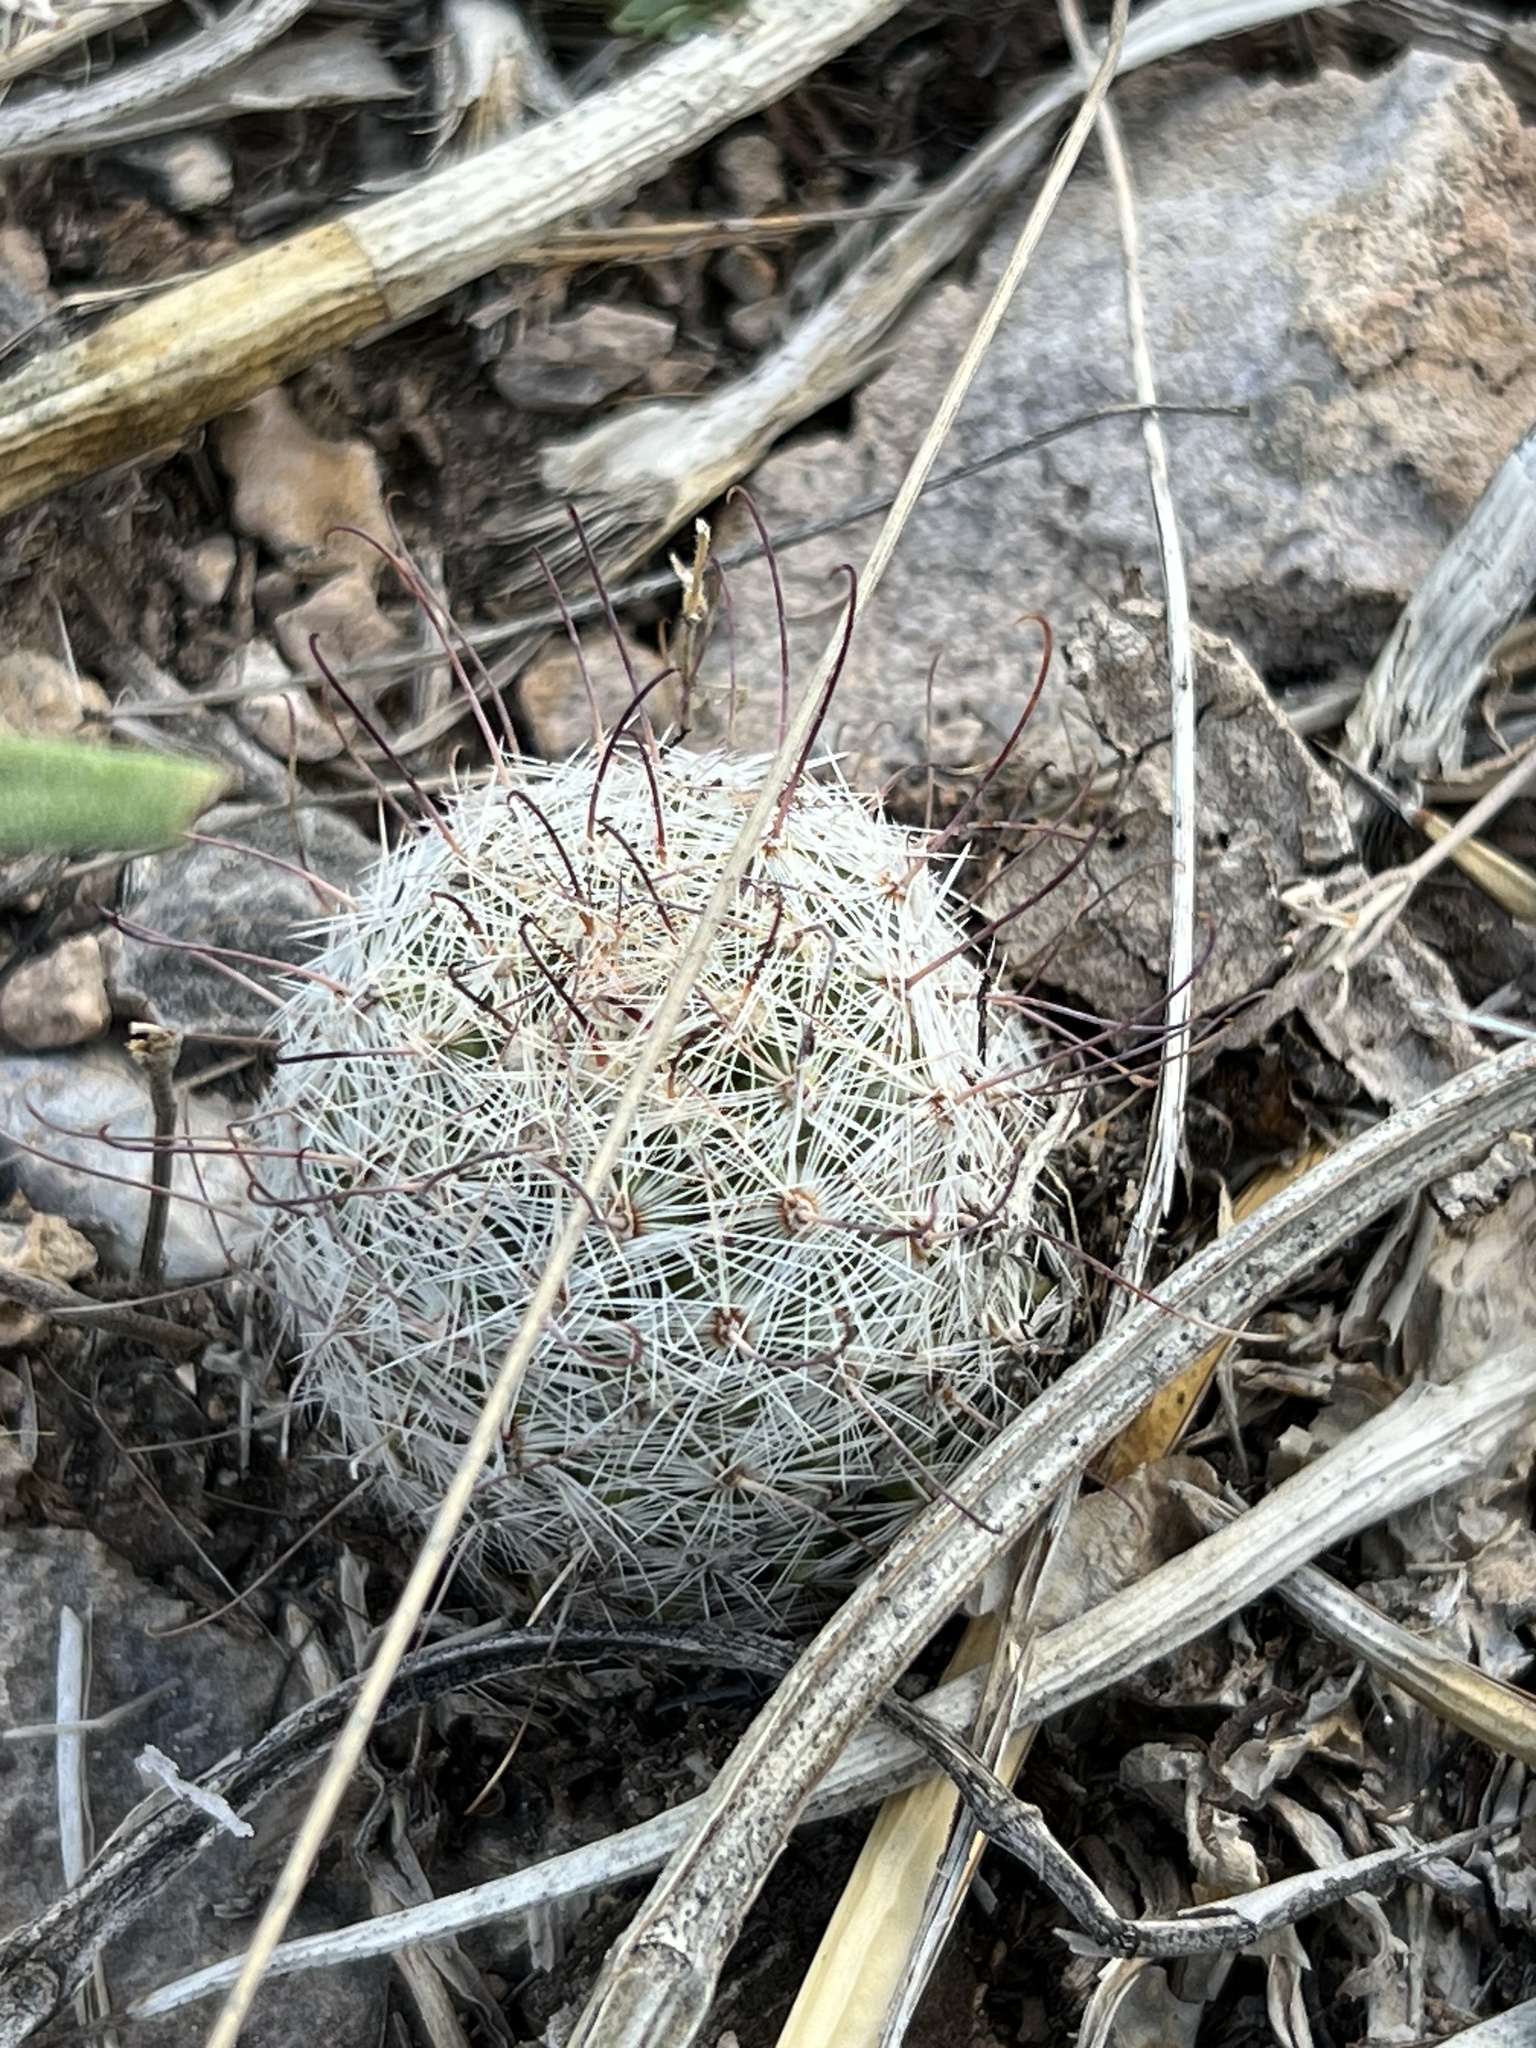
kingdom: Plantae
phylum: Tracheophyta
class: Magnoliopsida
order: Caryophyllales
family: Cactaceae
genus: Cochemiea
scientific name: Cochemiea grahamii
